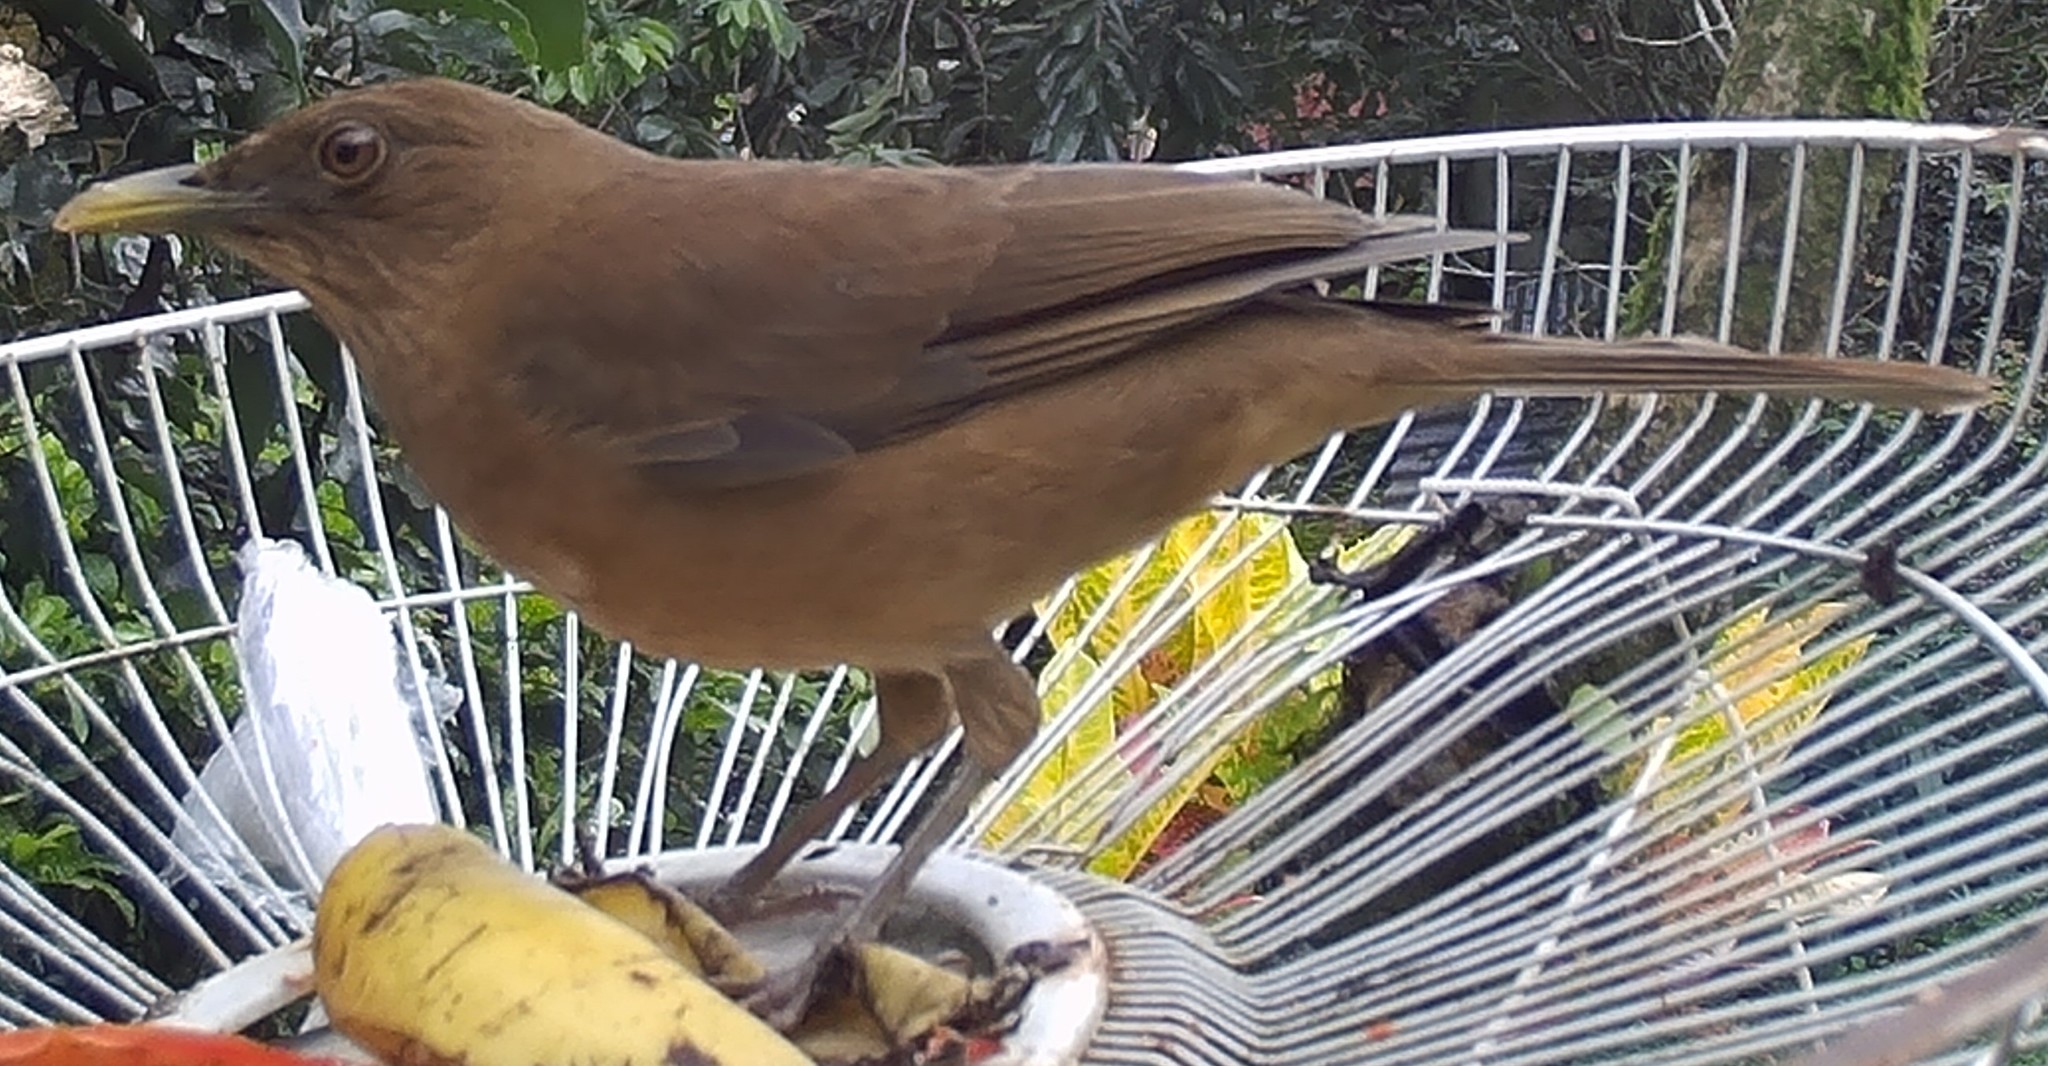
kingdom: Animalia
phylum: Chordata
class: Aves
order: Passeriformes
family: Turdidae
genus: Turdus
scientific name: Turdus grayi
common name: Clay-colored thrush
